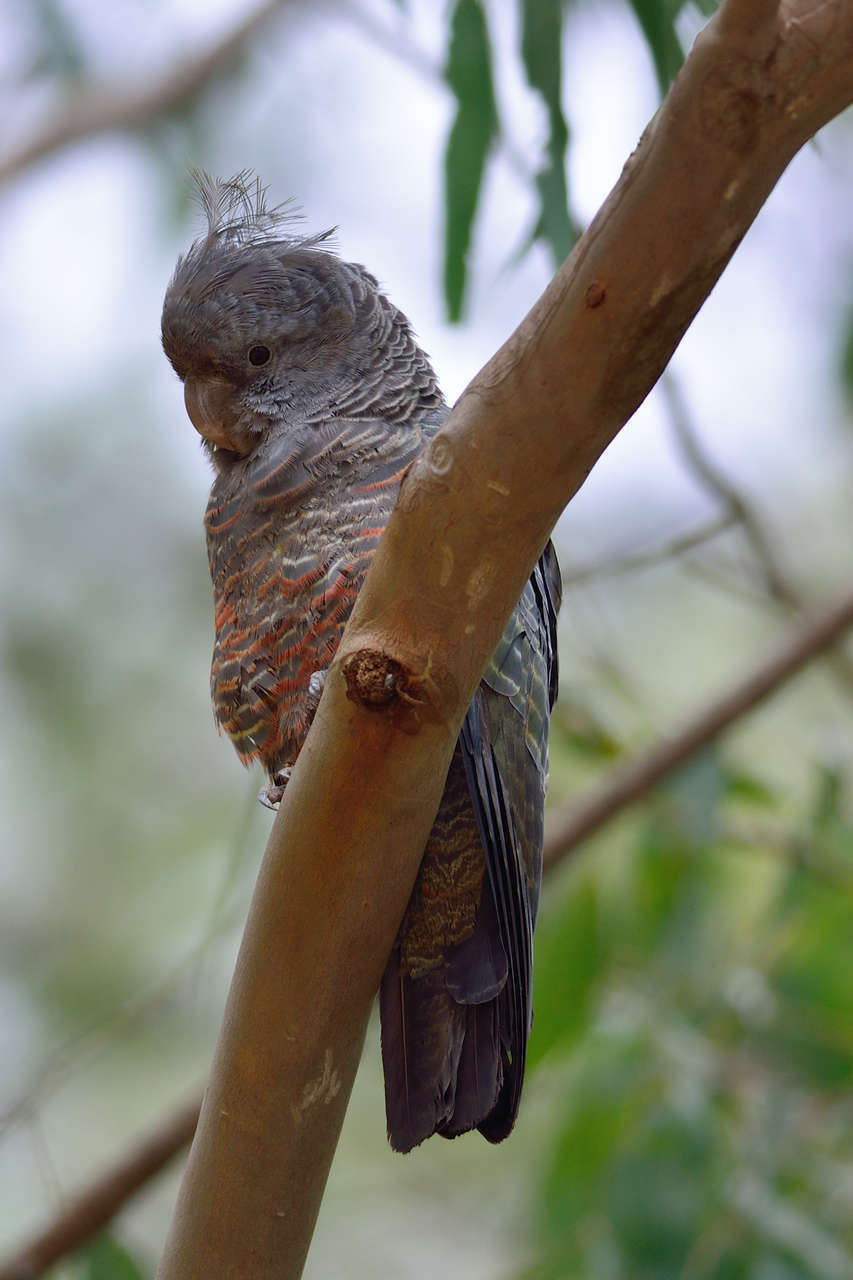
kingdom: Animalia
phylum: Chordata
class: Aves
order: Psittaciformes
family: Psittacidae
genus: Callocephalon
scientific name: Callocephalon fimbriatum
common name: Gang-gang cockatoo
